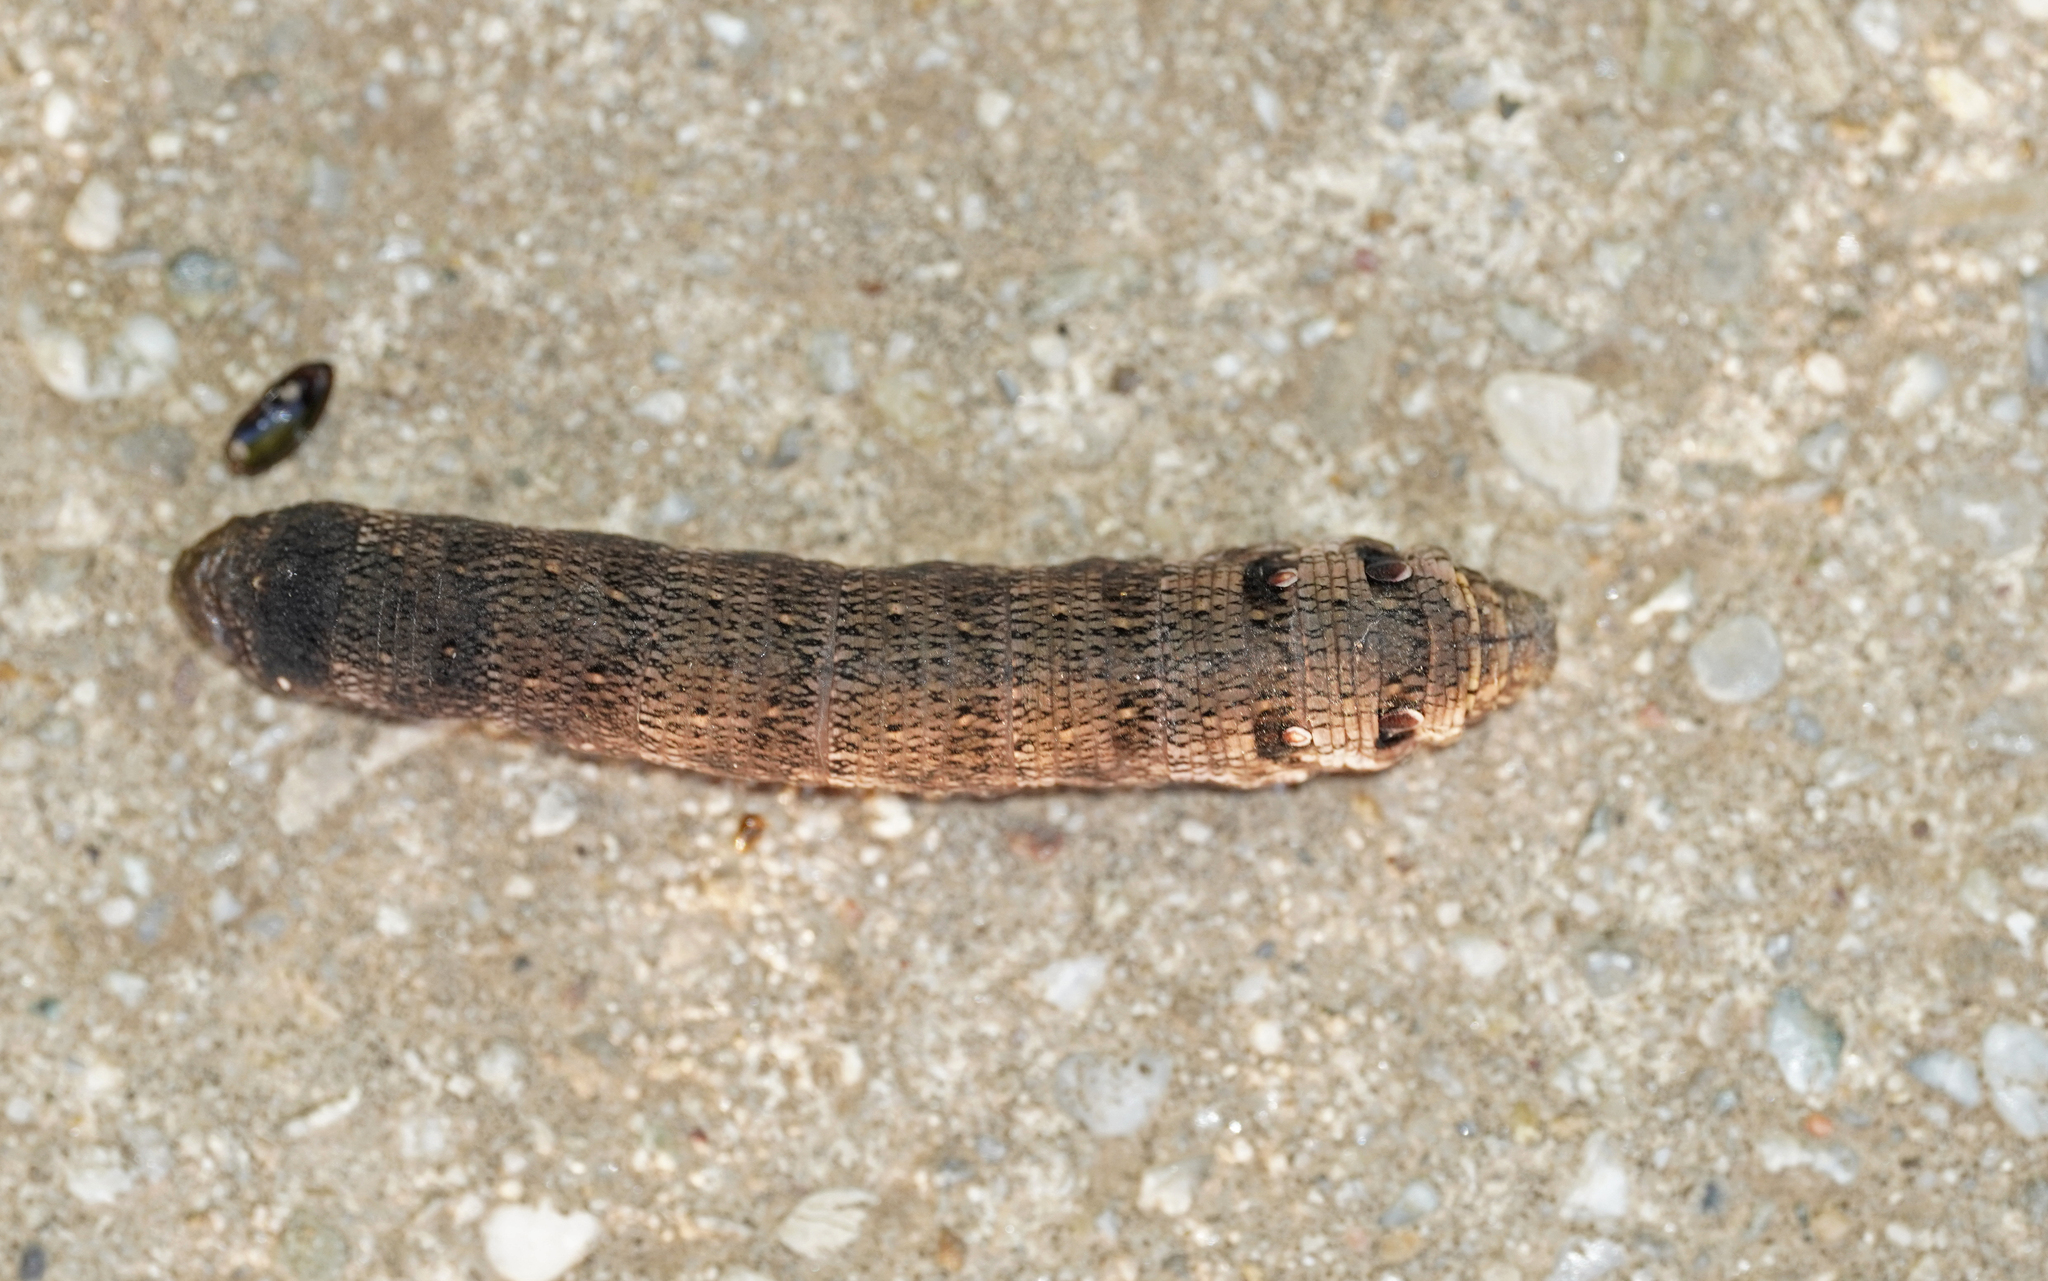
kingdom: Animalia
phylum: Arthropoda
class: Insecta
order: Lepidoptera
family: Sphingidae
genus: Deilephila
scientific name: Deilephila porcellus
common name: Small elephant hawk-moth
